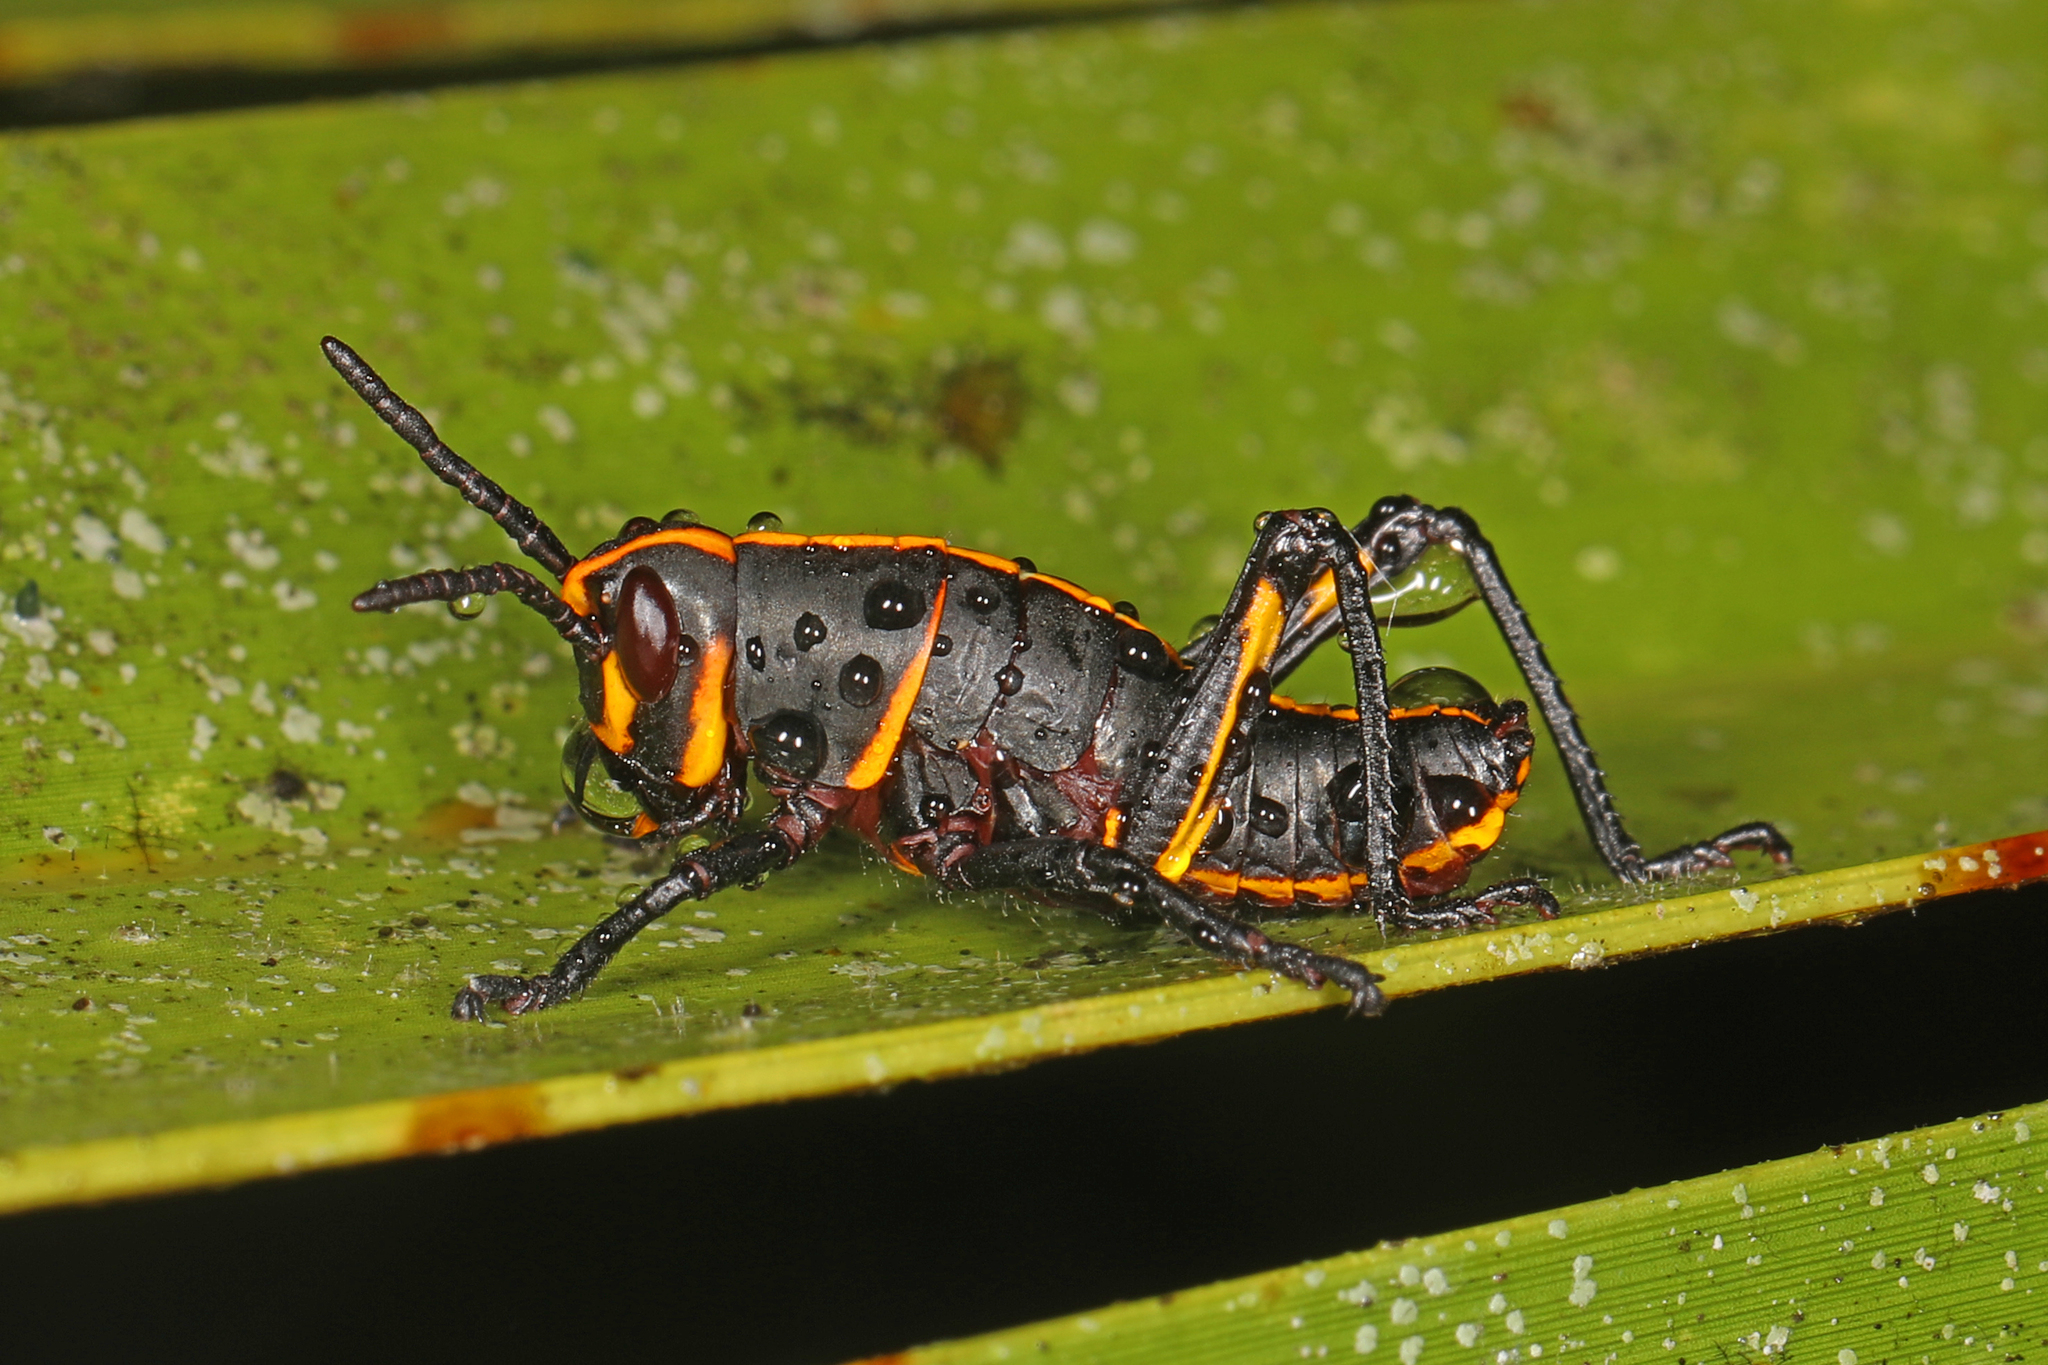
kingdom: Animalia
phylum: Arthropoda
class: Insecta
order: Orthoptera
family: Romaleidae
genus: Romalea
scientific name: Romalea microptera
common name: Eastern lubber grasshopper
